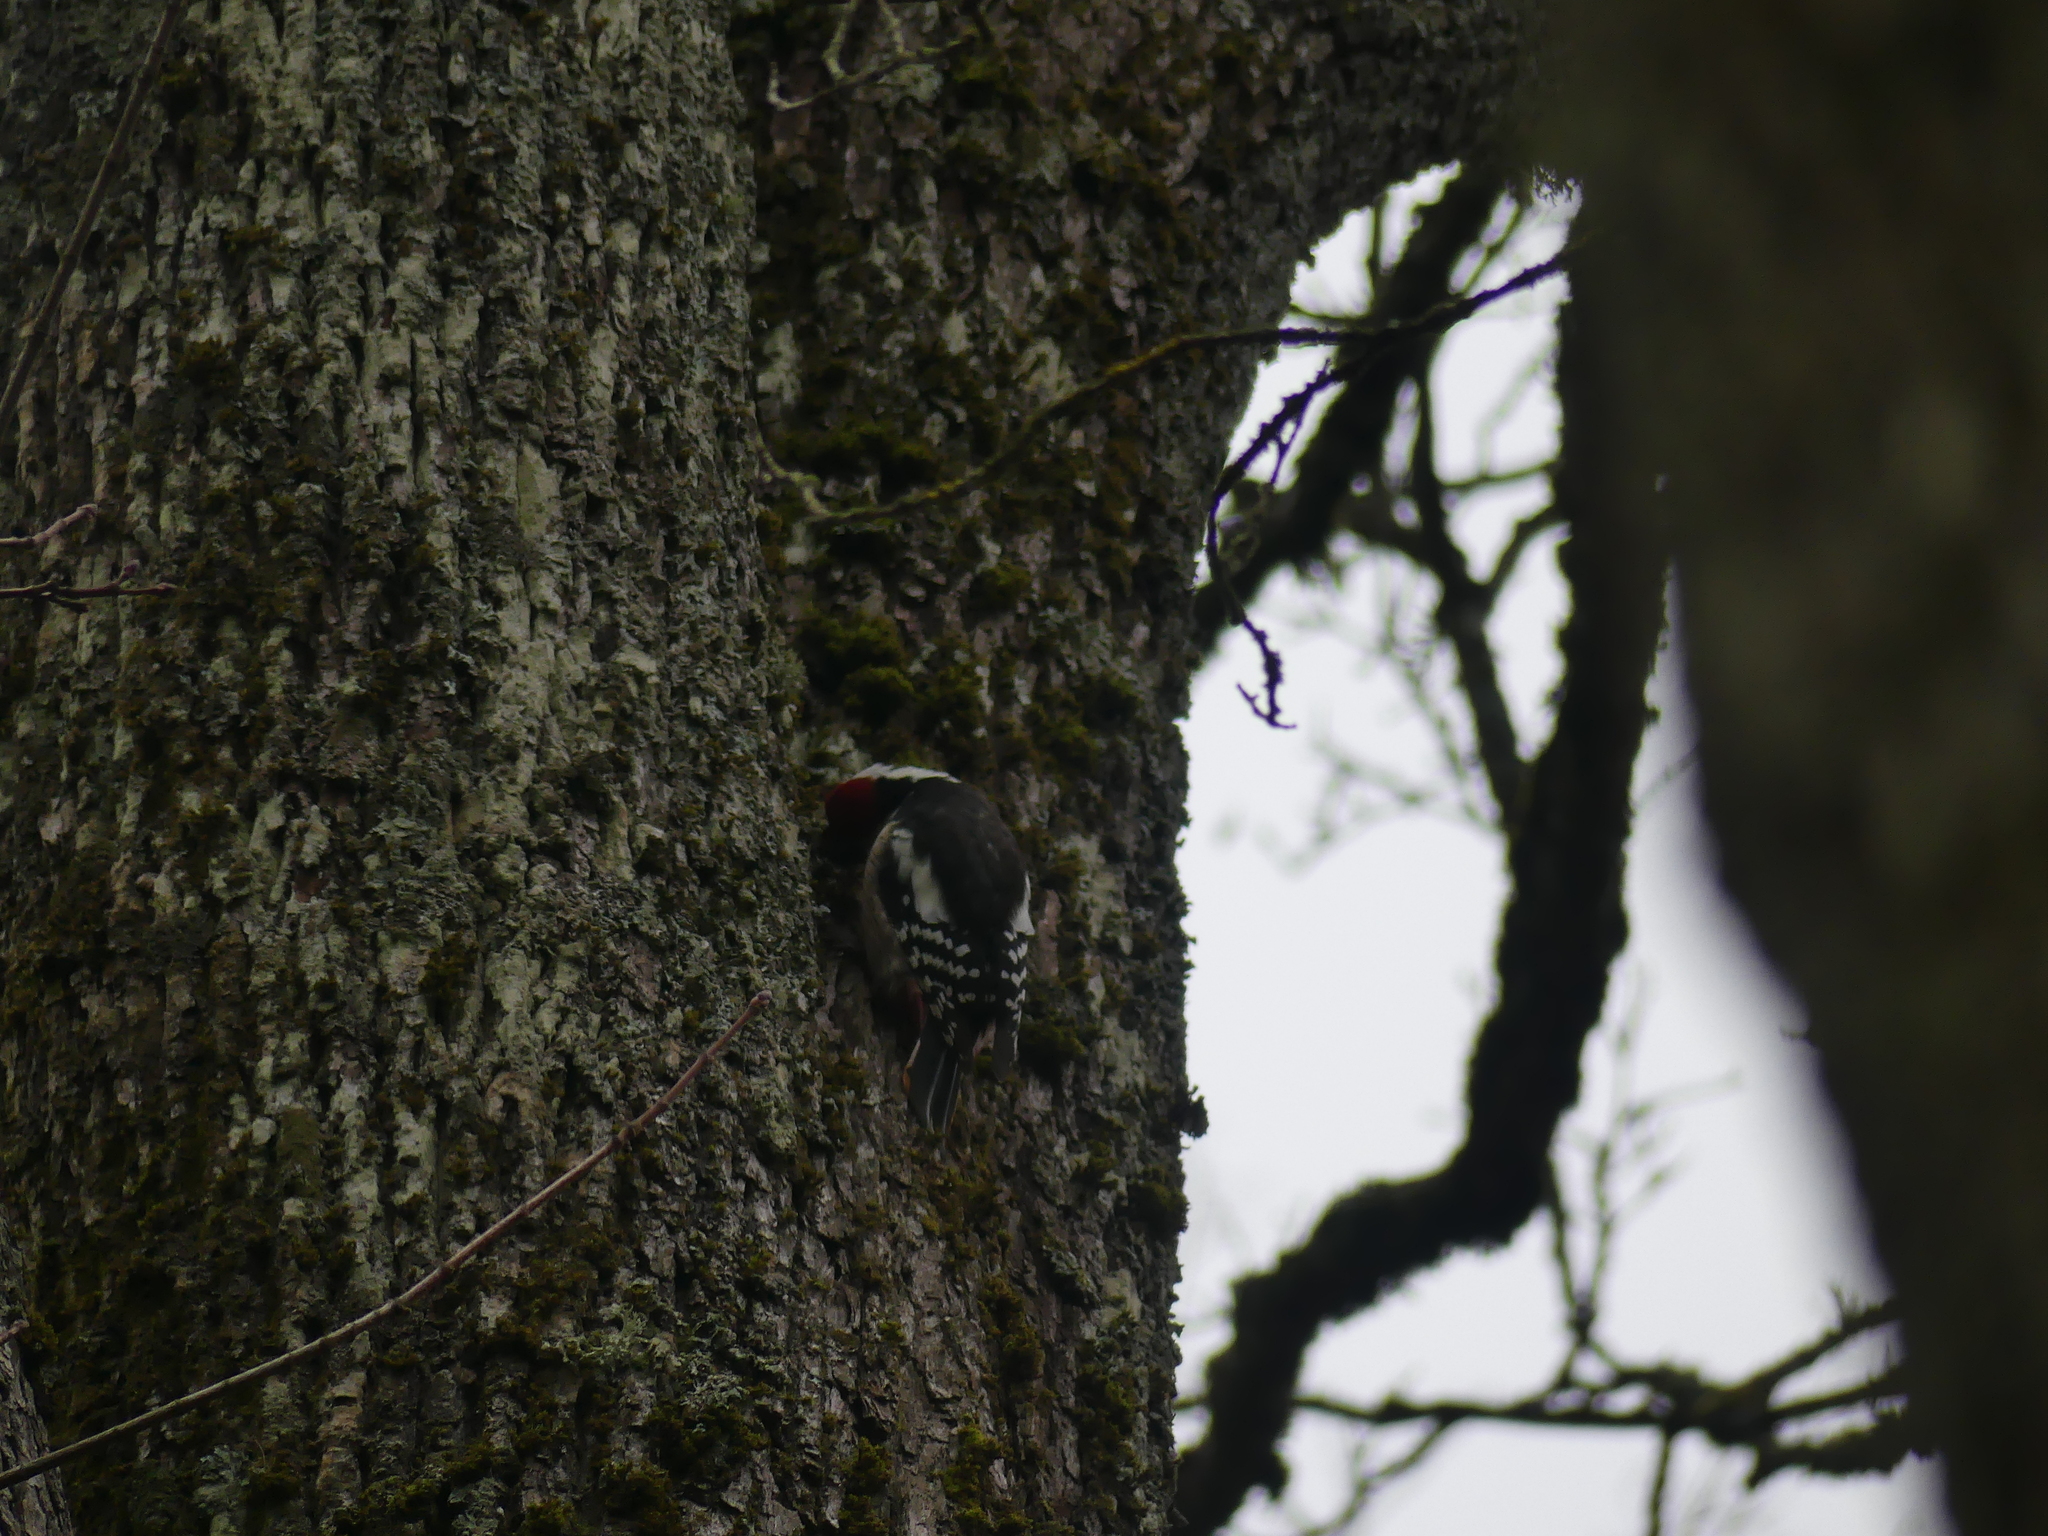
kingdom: Animalia
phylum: Chordata
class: Aves
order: Piciformes
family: Picidae
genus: Dendrocoptes
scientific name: Dendrocoptes medius
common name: Middle spotted woodpecker
